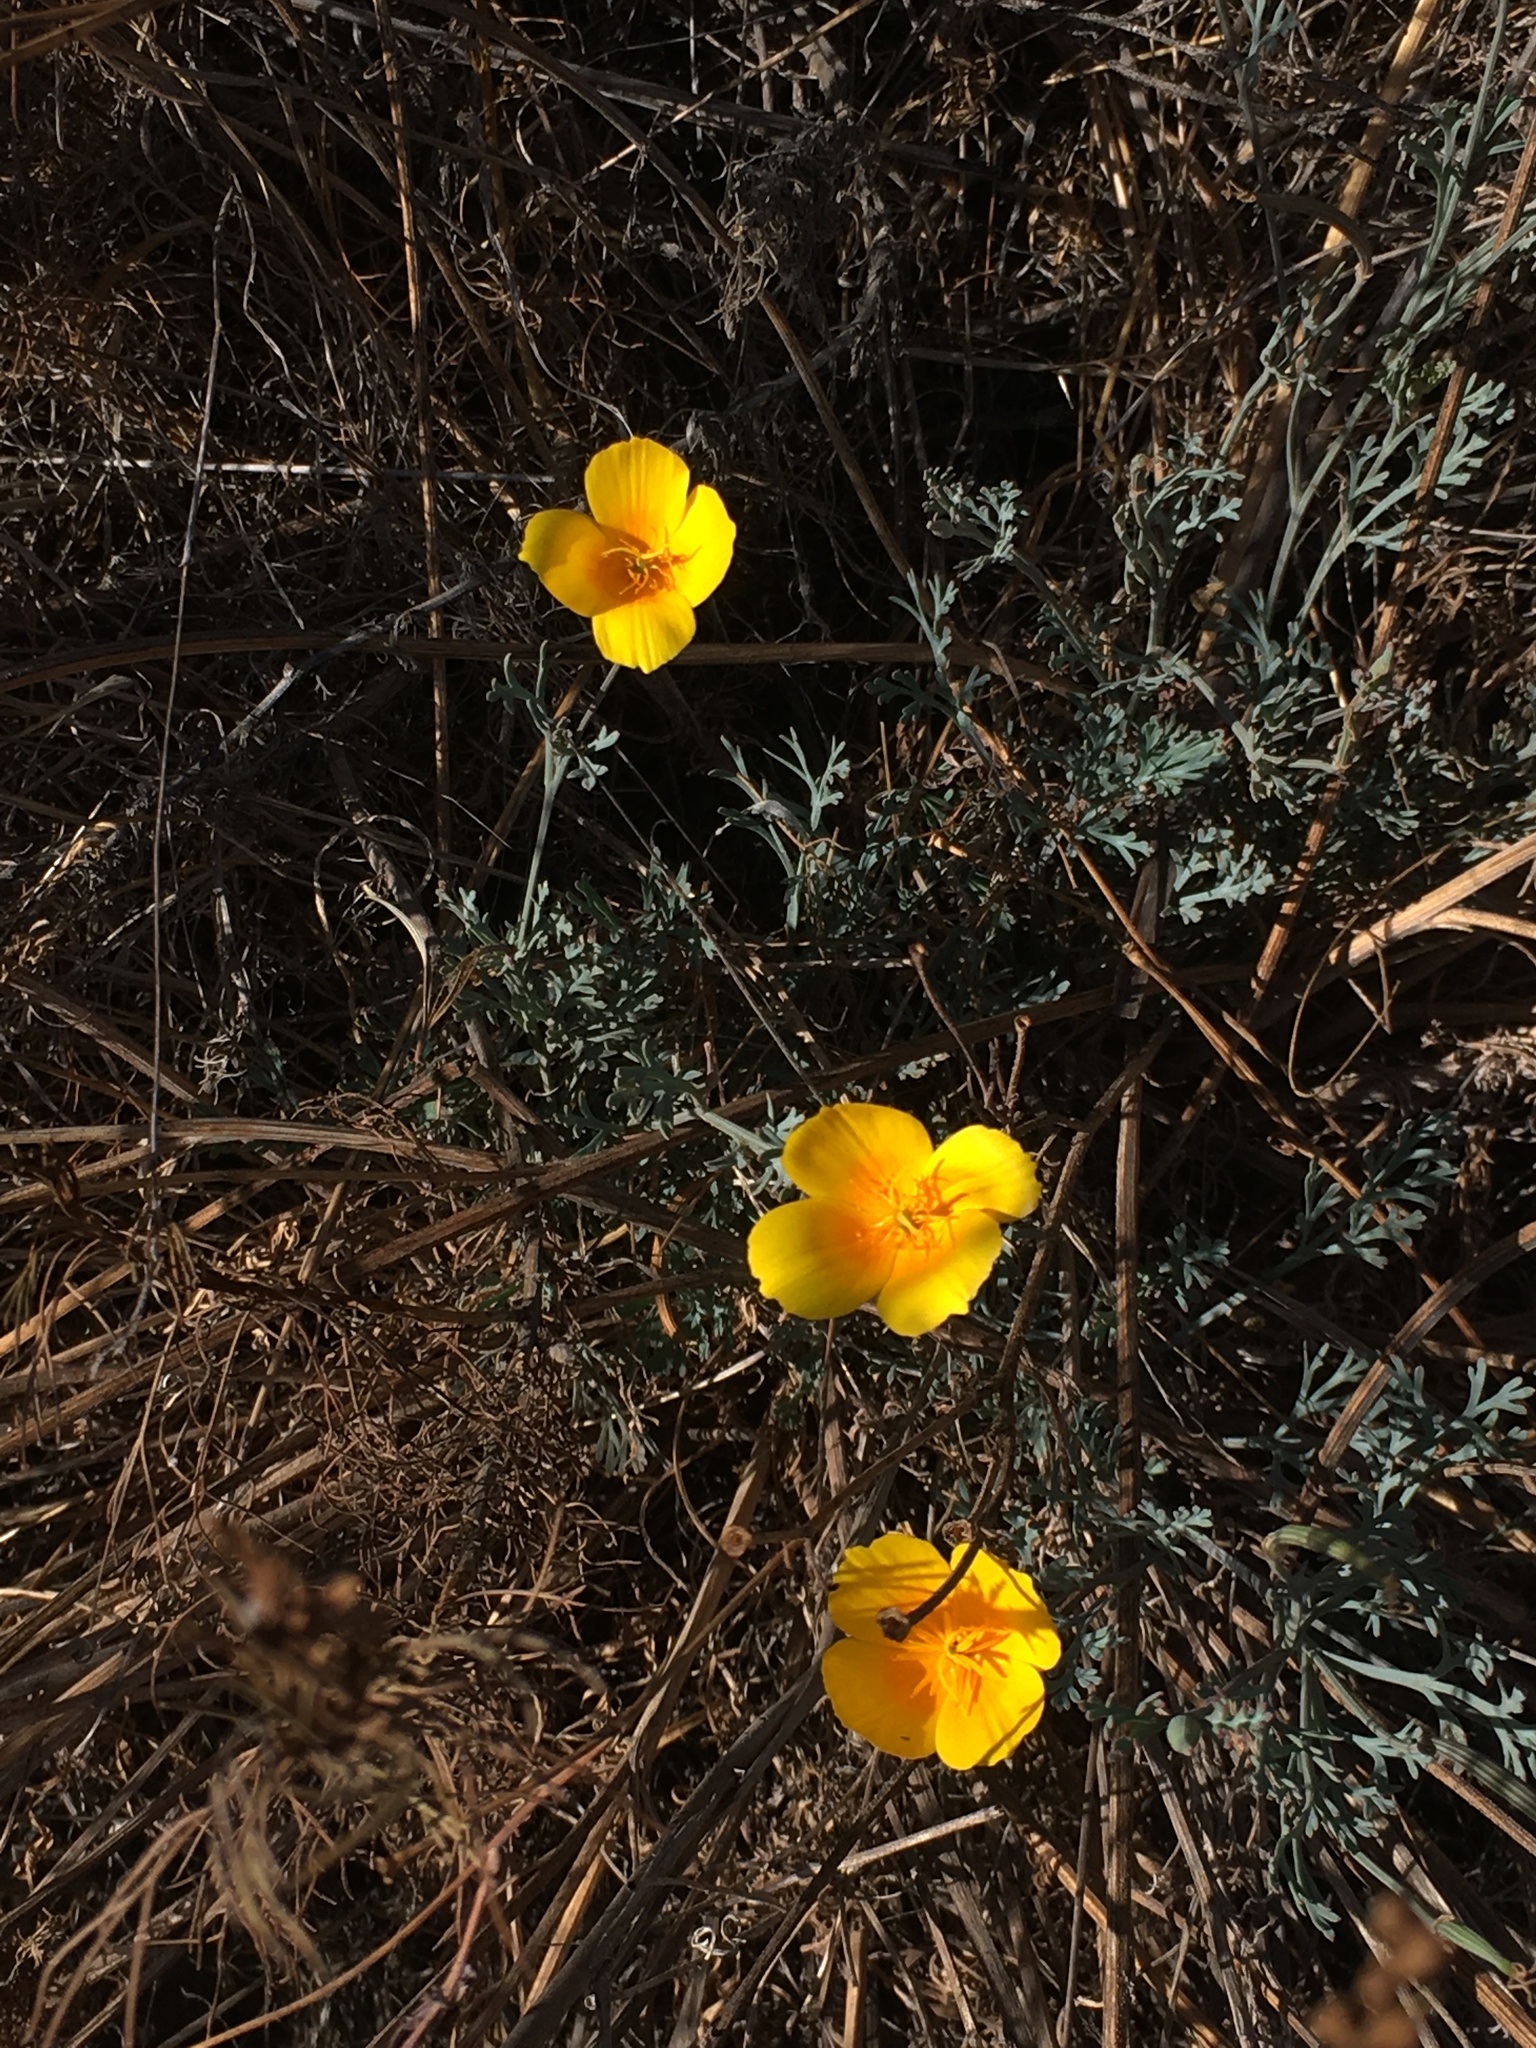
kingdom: Plantae
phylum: Tracheophyta
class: Magnoliopsida
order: Ranunculales
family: Papaveraceae
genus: Eschscholzia
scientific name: Eschscholzia californica
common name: California poppy
